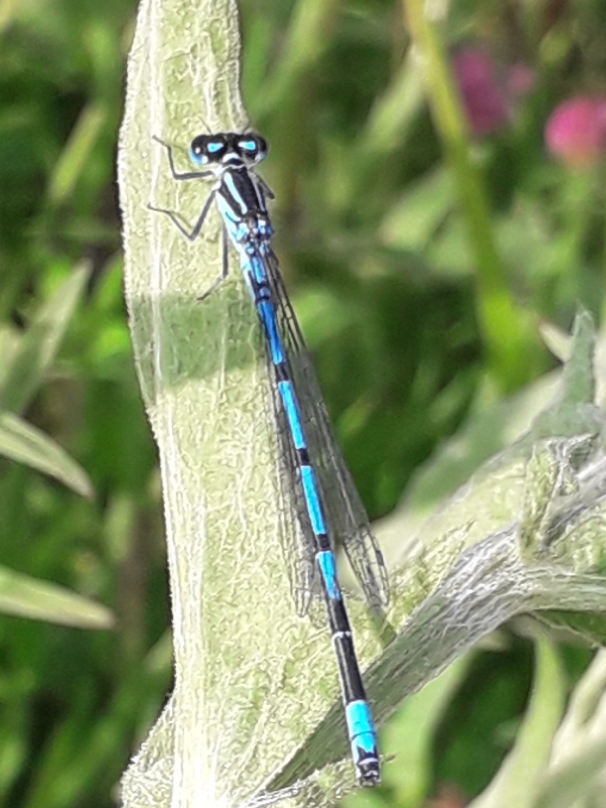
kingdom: Animalia
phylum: Arthropoda
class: Insecta
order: Odonata
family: Coenagrionidae
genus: Coenagrion
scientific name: Coenagrion puella
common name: Azure damselfly
